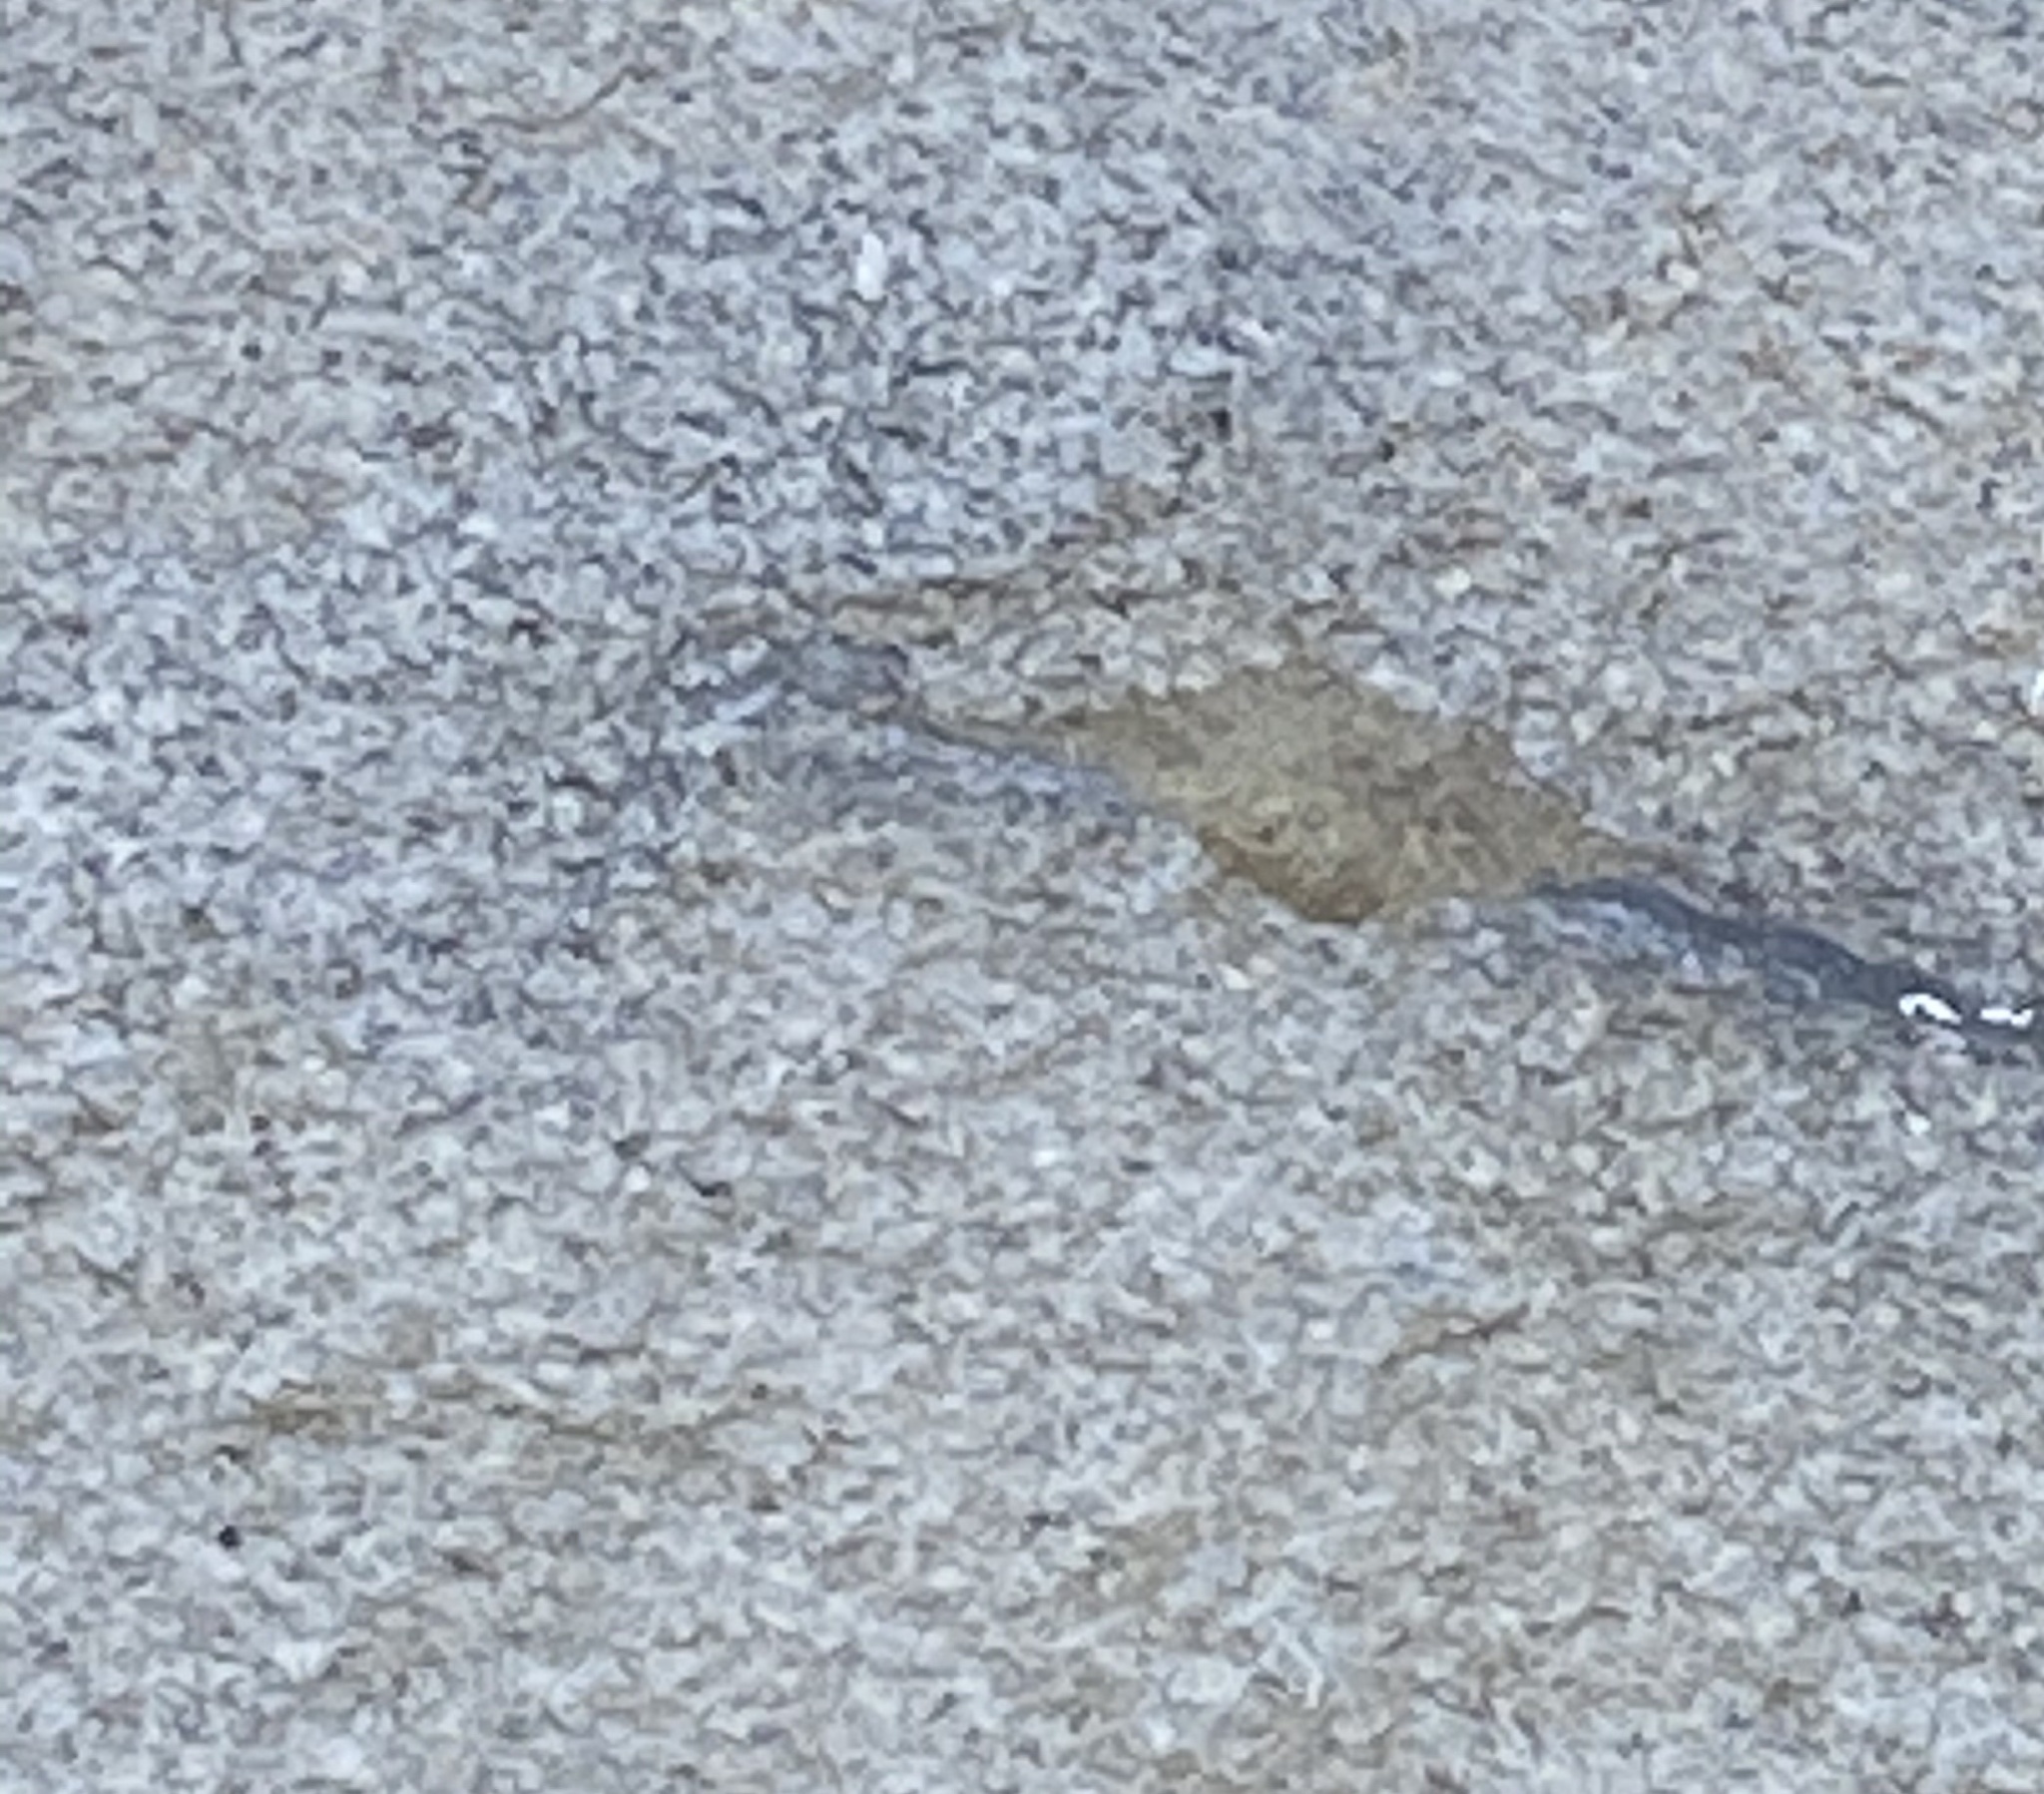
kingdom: Animalia
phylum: Arthropoda
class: Insecta
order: Hymenoptera
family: Sphecidae
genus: Sceliphron
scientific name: Sceliphron caementarium
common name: Mud dauber
